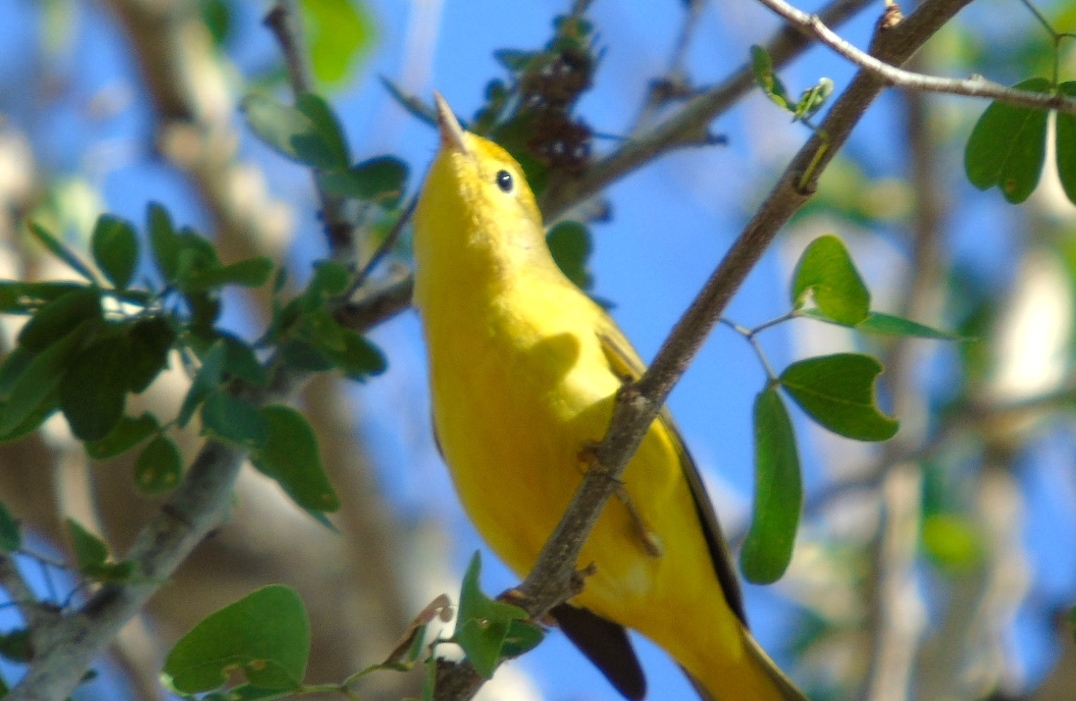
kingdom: Animalia
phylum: Chordata
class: Aves
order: Passeriformes
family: Parulidae
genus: Setophaga
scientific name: Setophaga petechia
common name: Yellow warbler
